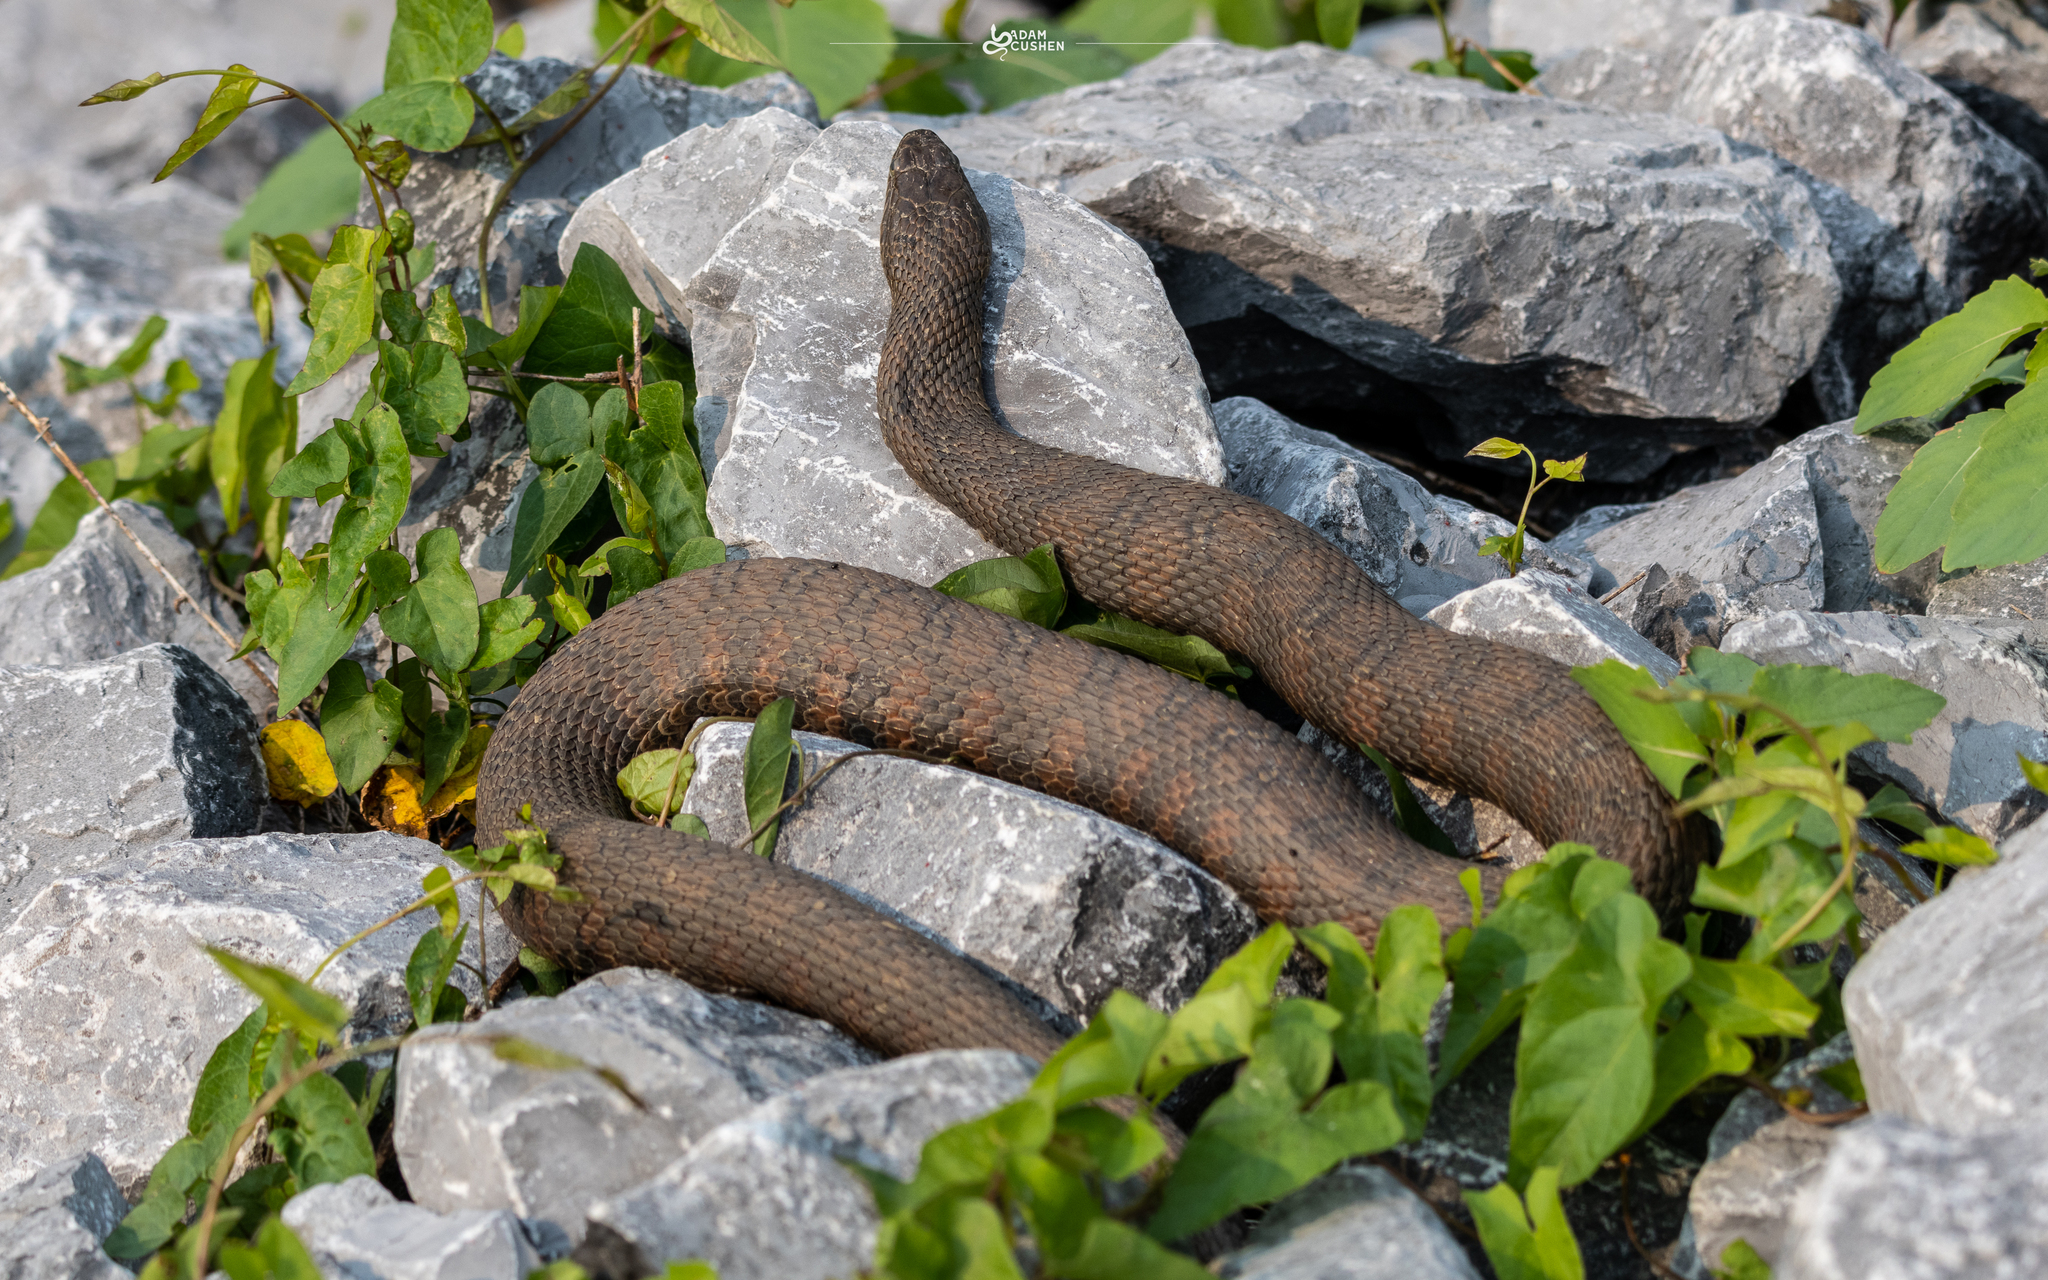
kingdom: Animalia
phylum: Chordata
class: Squamata
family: Colubridae
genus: Nerodia
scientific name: Nerodia sipedon
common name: Northern water snake
